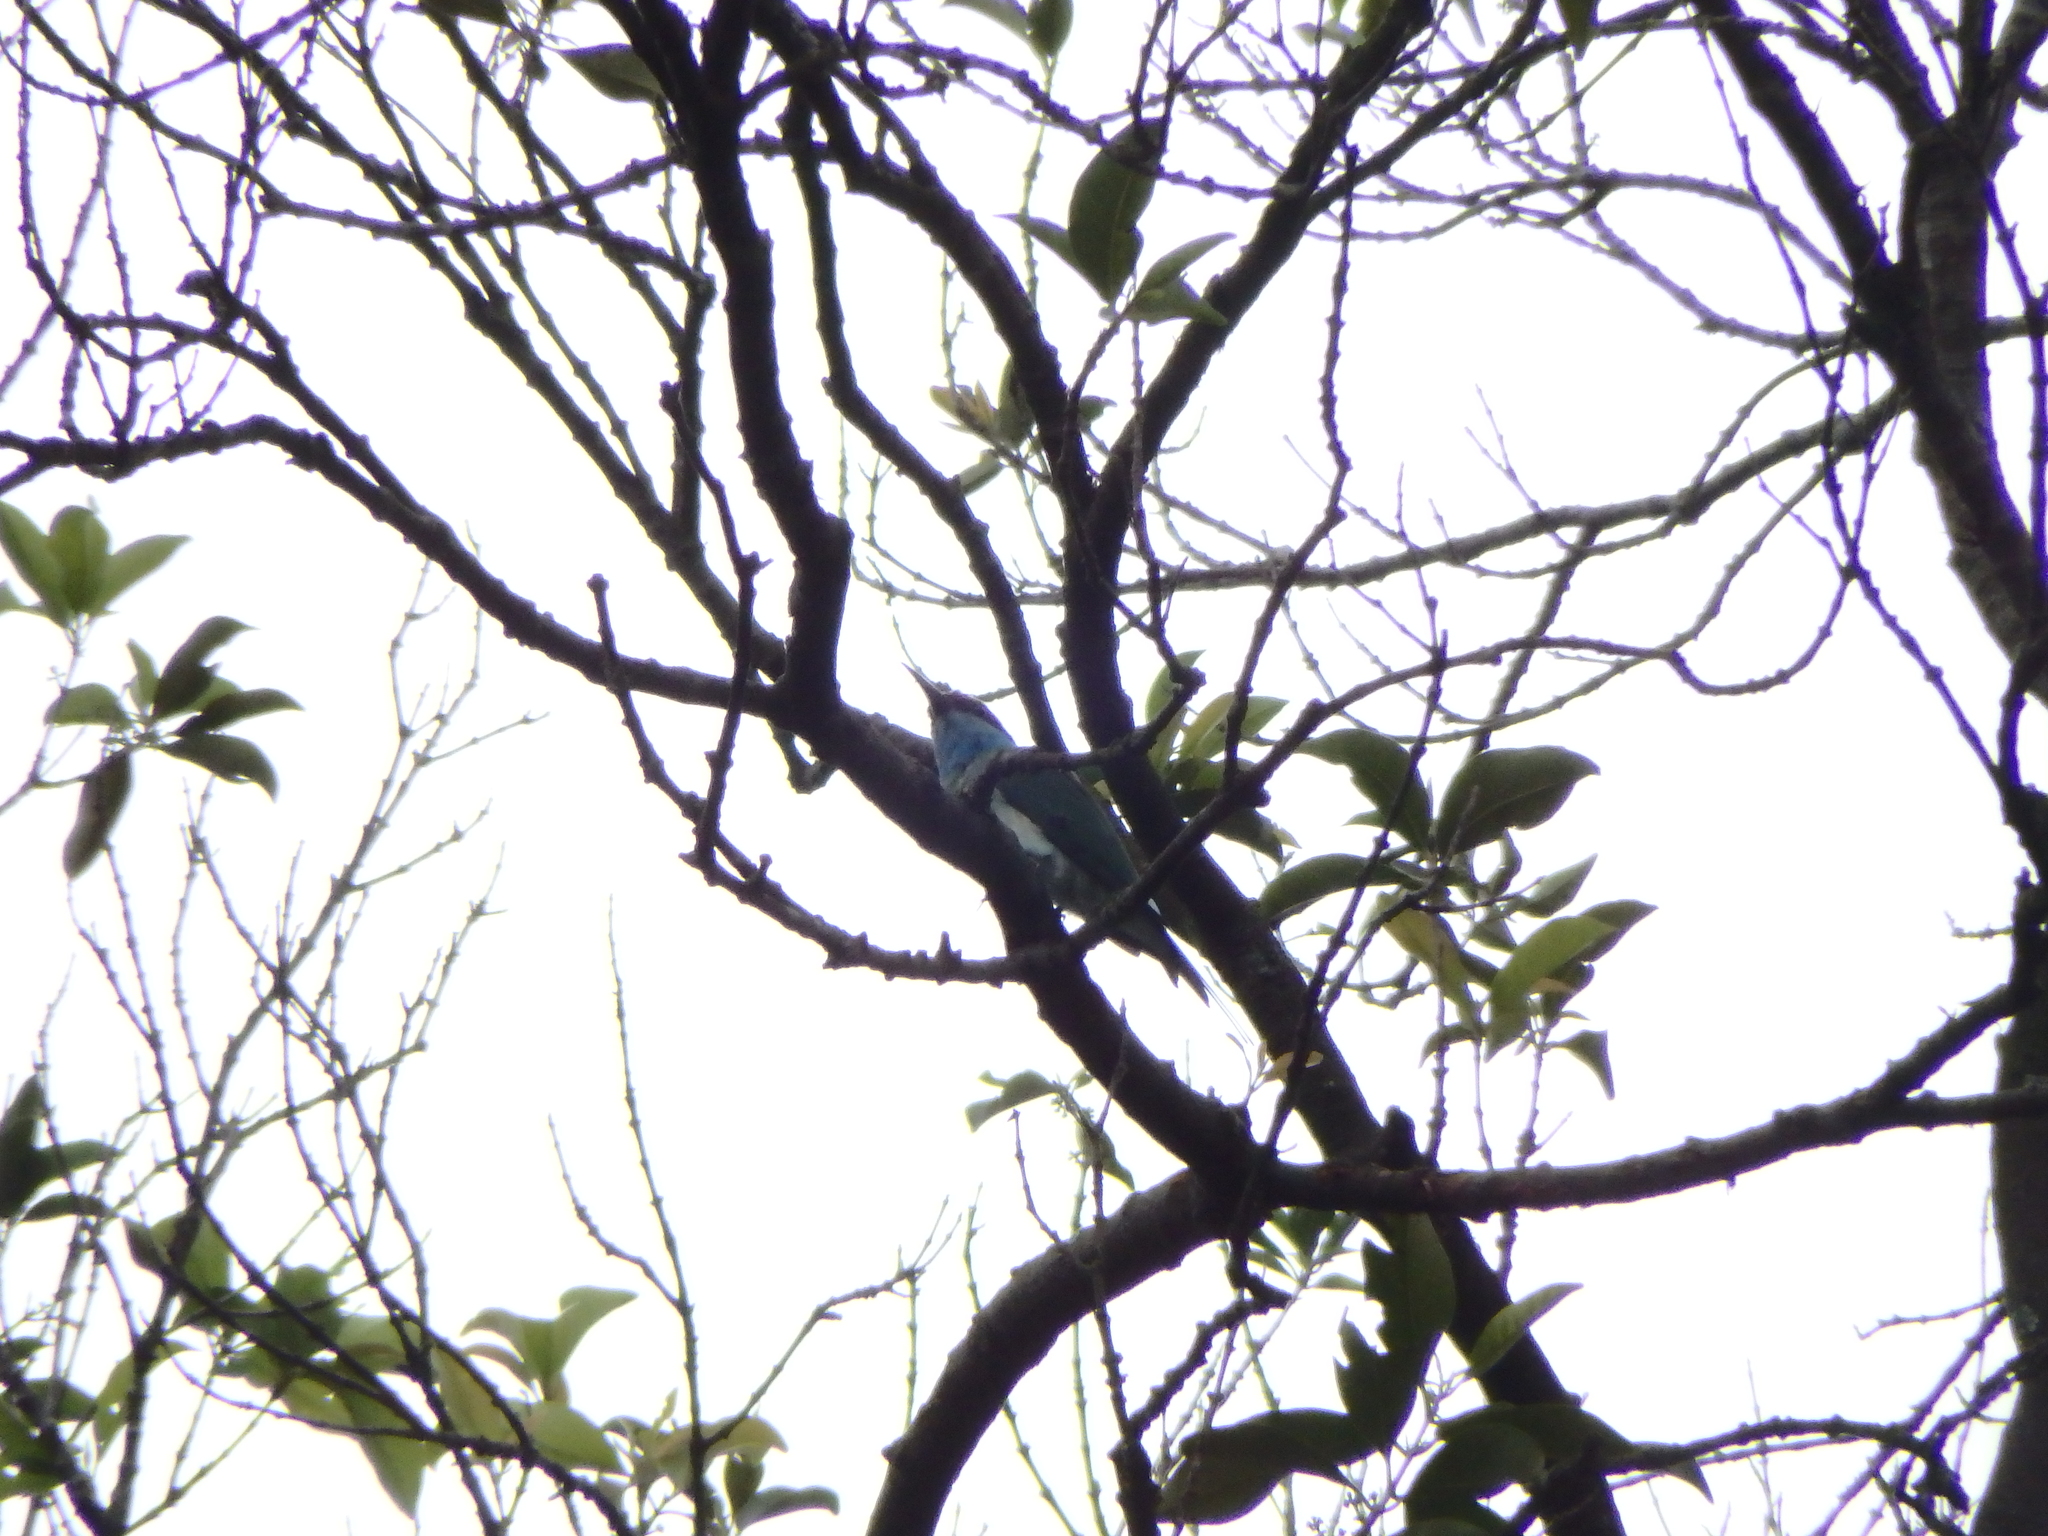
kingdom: Animalia
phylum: Chordata
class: Aves
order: Coraciiformes
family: Meropidae
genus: Merops
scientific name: Merops viridis
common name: Blue-throated bee-eater
